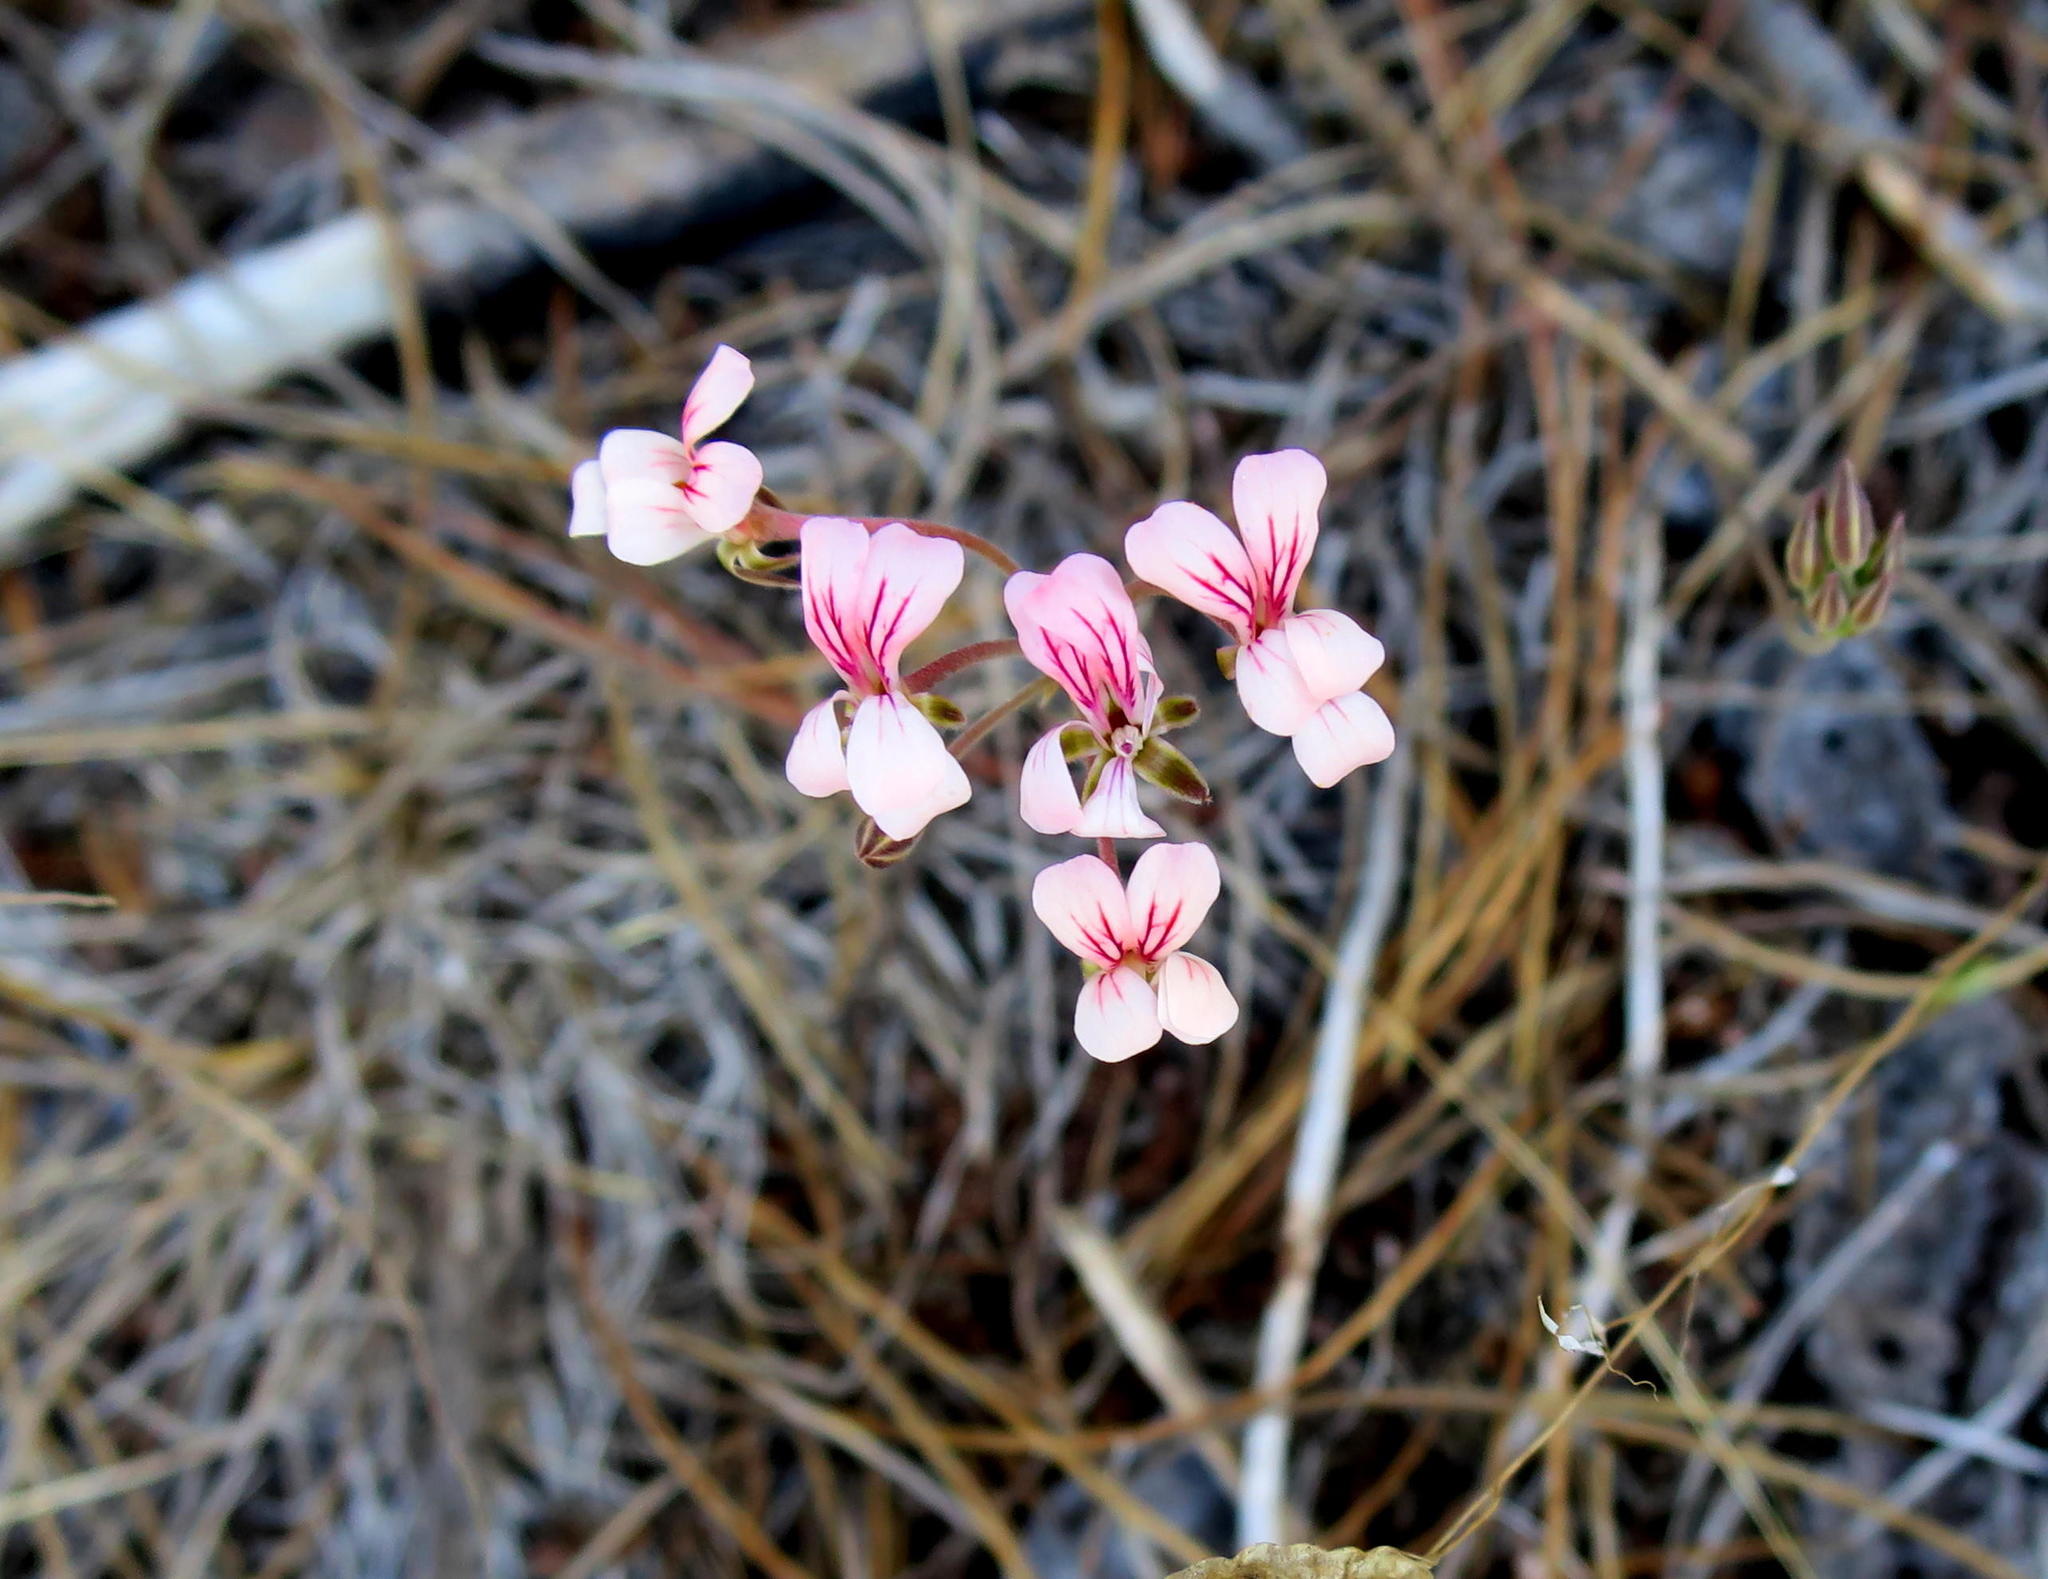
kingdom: Plantae
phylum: Tracheophyta
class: Magnoliopsida
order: Geraniales
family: Geraniaceae
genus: Pelargonium
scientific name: Pelargonium gracillimum
